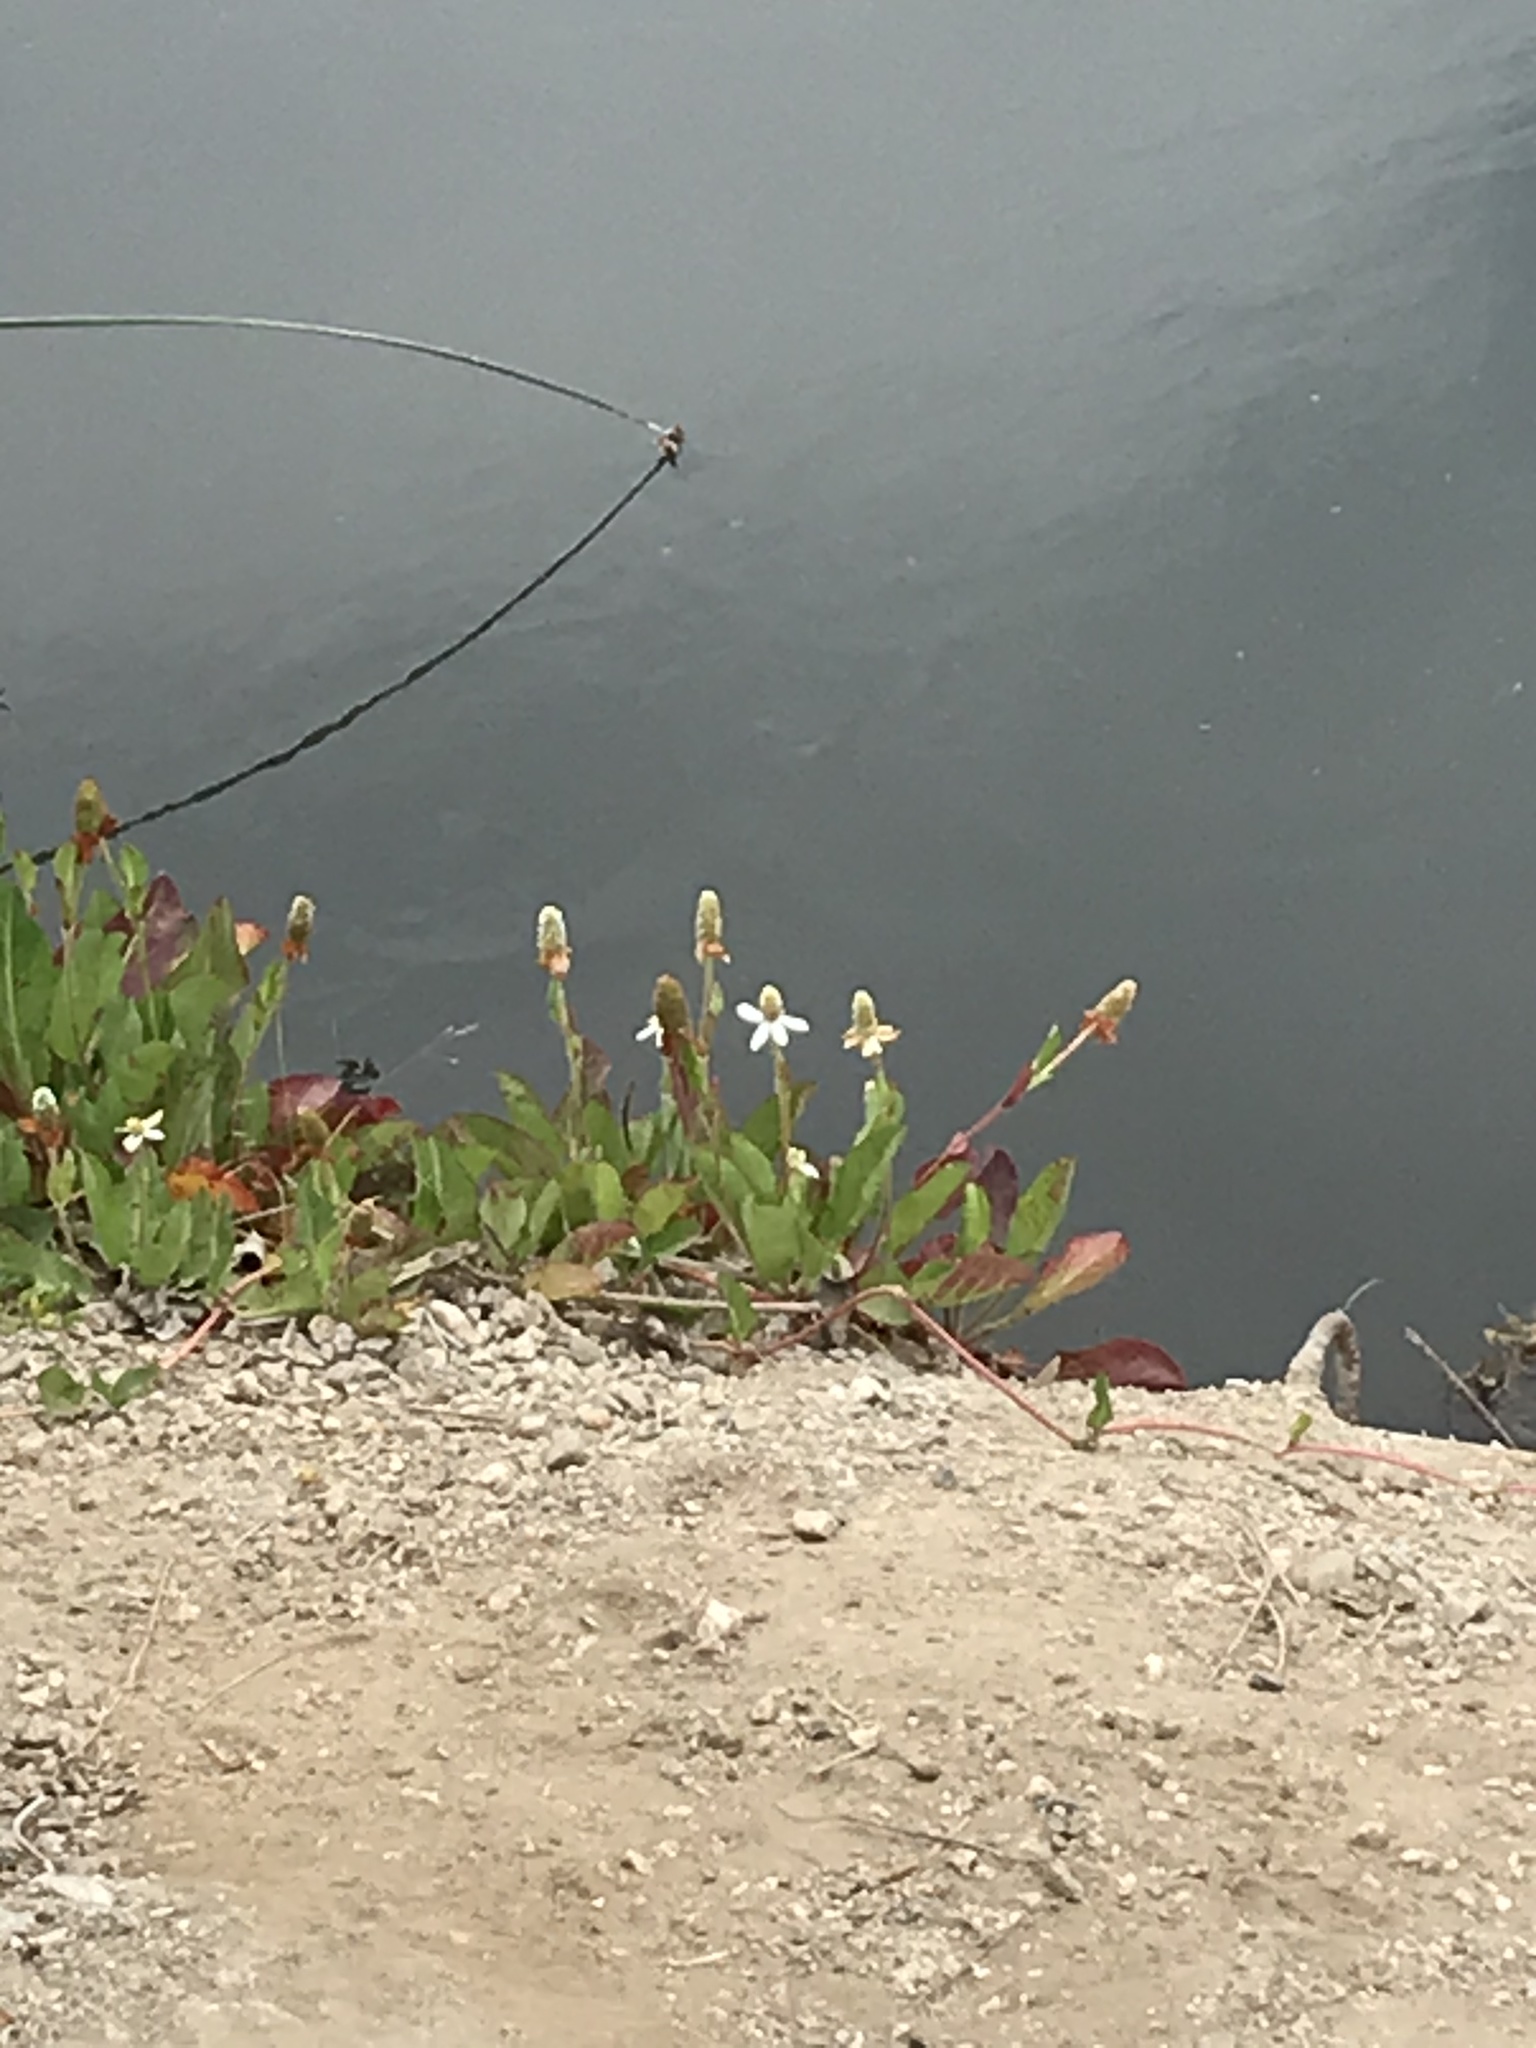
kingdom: Plantae
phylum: Tracheophyta
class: Magnoliopsida
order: Piperales
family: Saururaceae
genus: Anemopsis
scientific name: Anemopsis californica
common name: Apache-beads
